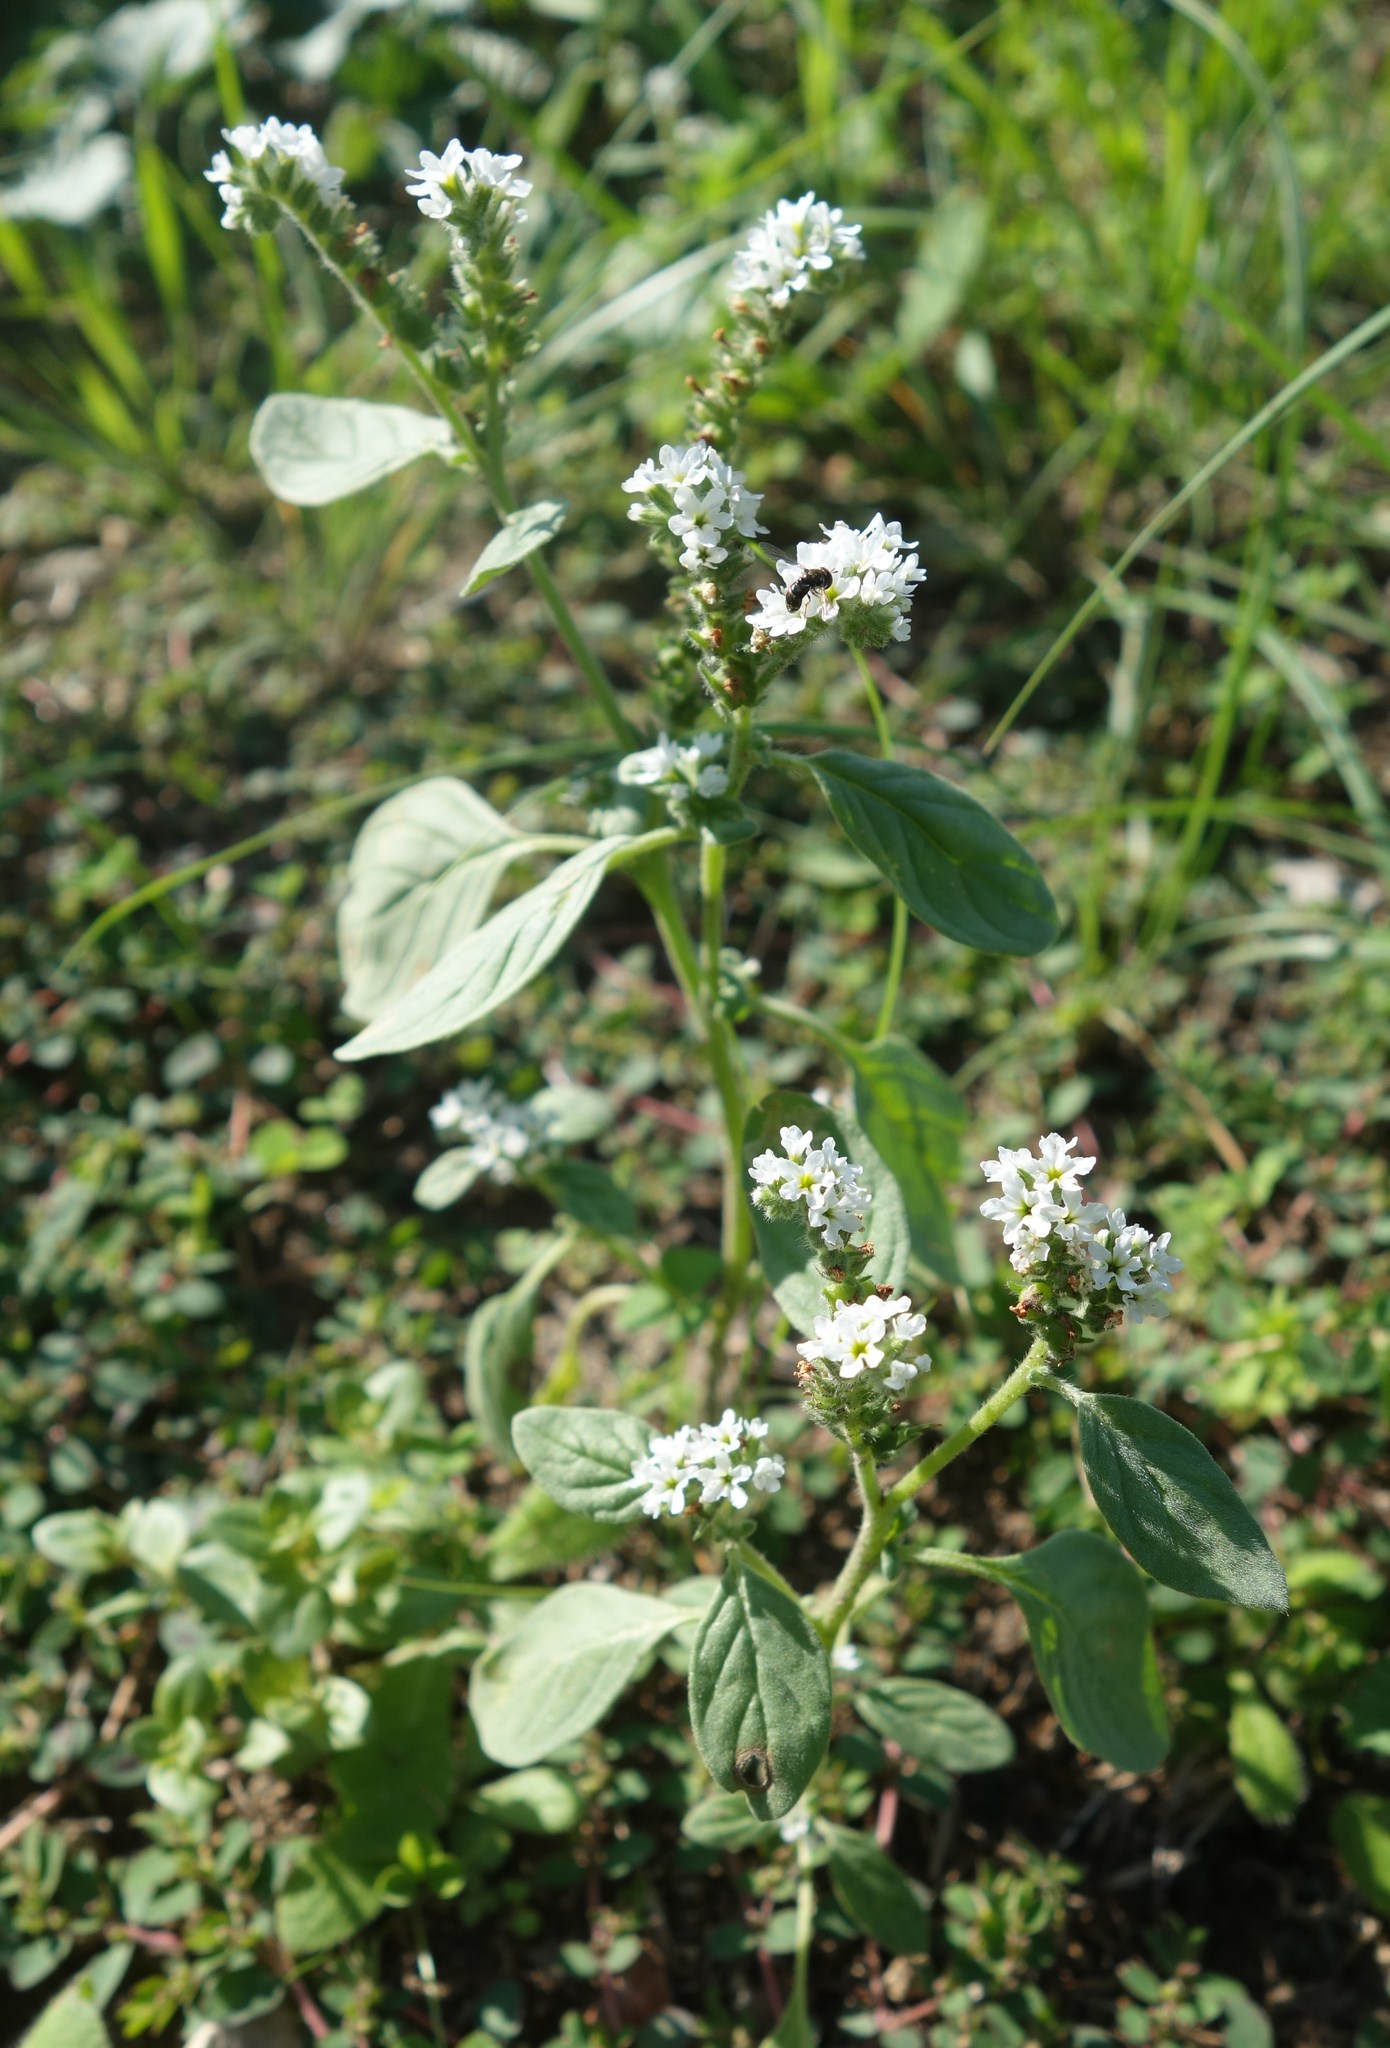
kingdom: Plantae
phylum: Tracheophyta
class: Magnoliopsida
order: Boraginales
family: Heliotropiaceae
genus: Heliotropium
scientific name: Heliotropium europaeum
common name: European heliotrope
